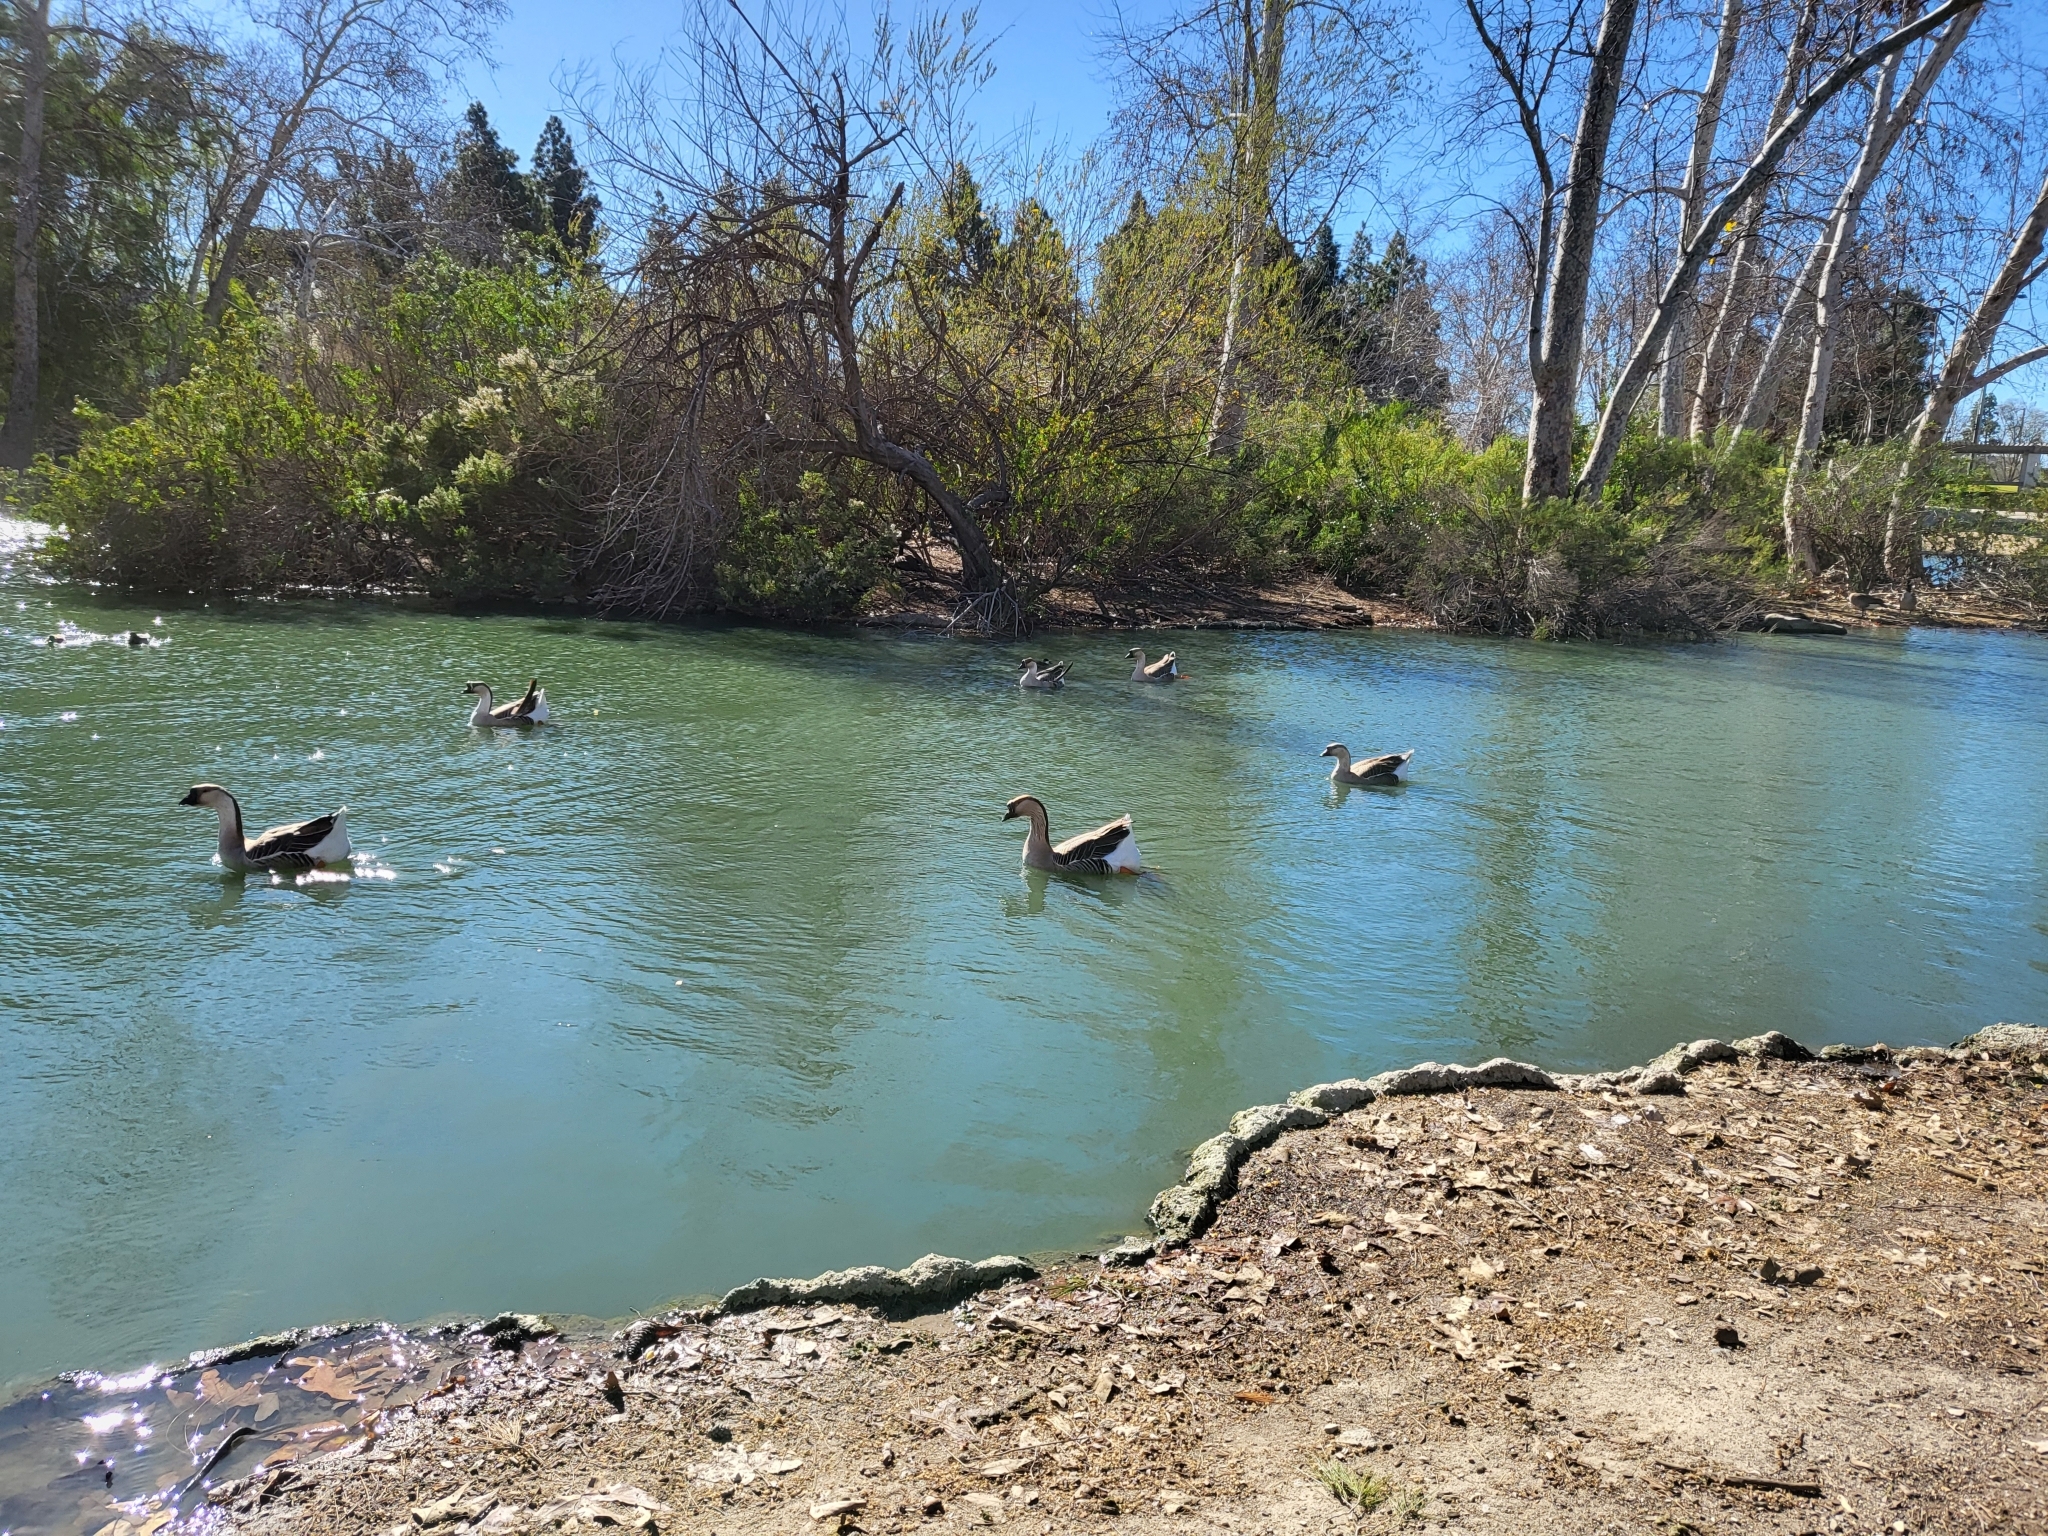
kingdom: Animalia
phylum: Chordata
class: Aves
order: Anseriformes
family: Anatidae
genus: Anser
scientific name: Anser cygnoides
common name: Swan goose
